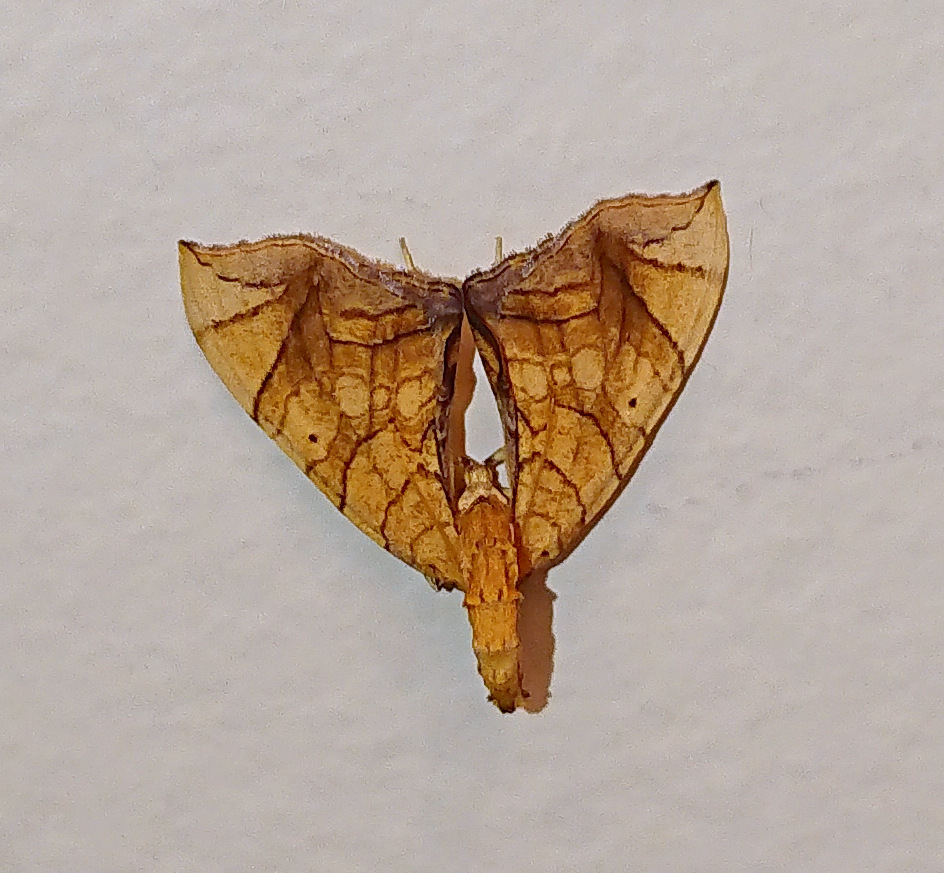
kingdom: Animalia
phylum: Arthropoda
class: Insecta
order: Lepidoptera
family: Geometridae
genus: Eulithis
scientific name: Eulithis
